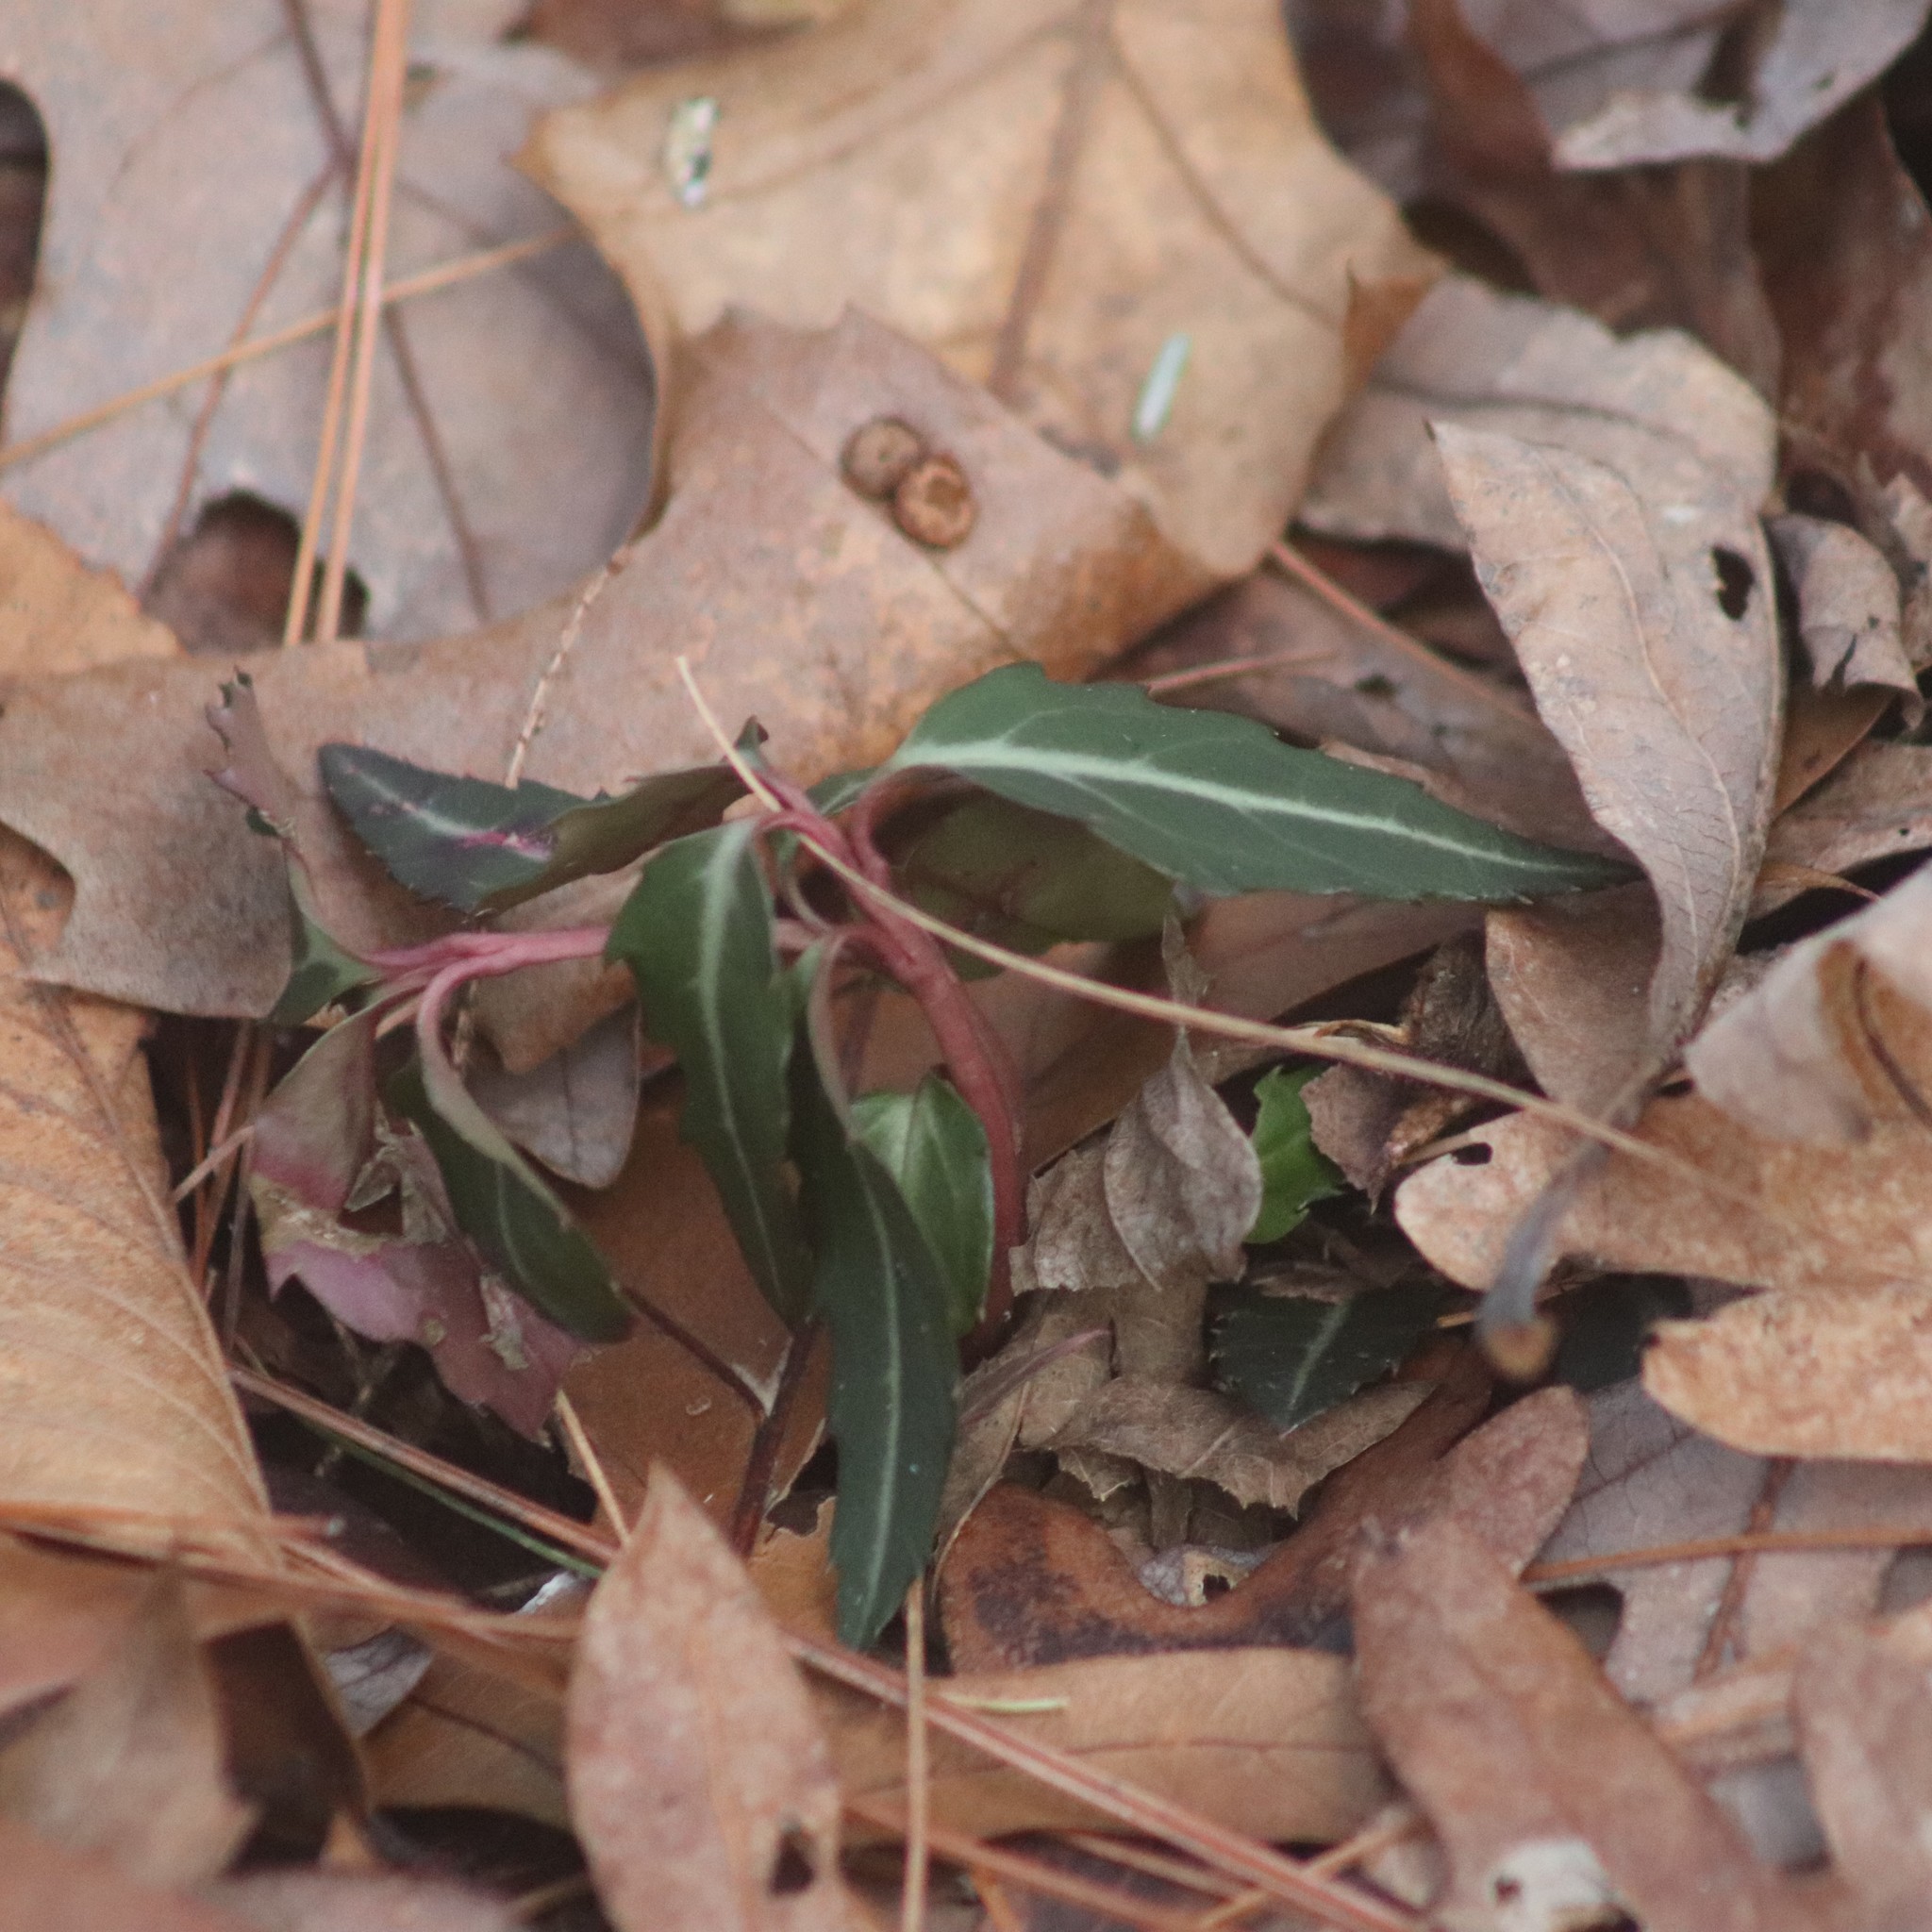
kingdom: Plantae
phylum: Tracheophyta
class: Magnoliopsida
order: Ericales
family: Ericaceae
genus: Chimaphila
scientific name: Chimaphila maculata
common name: Spotted pipsissewa
